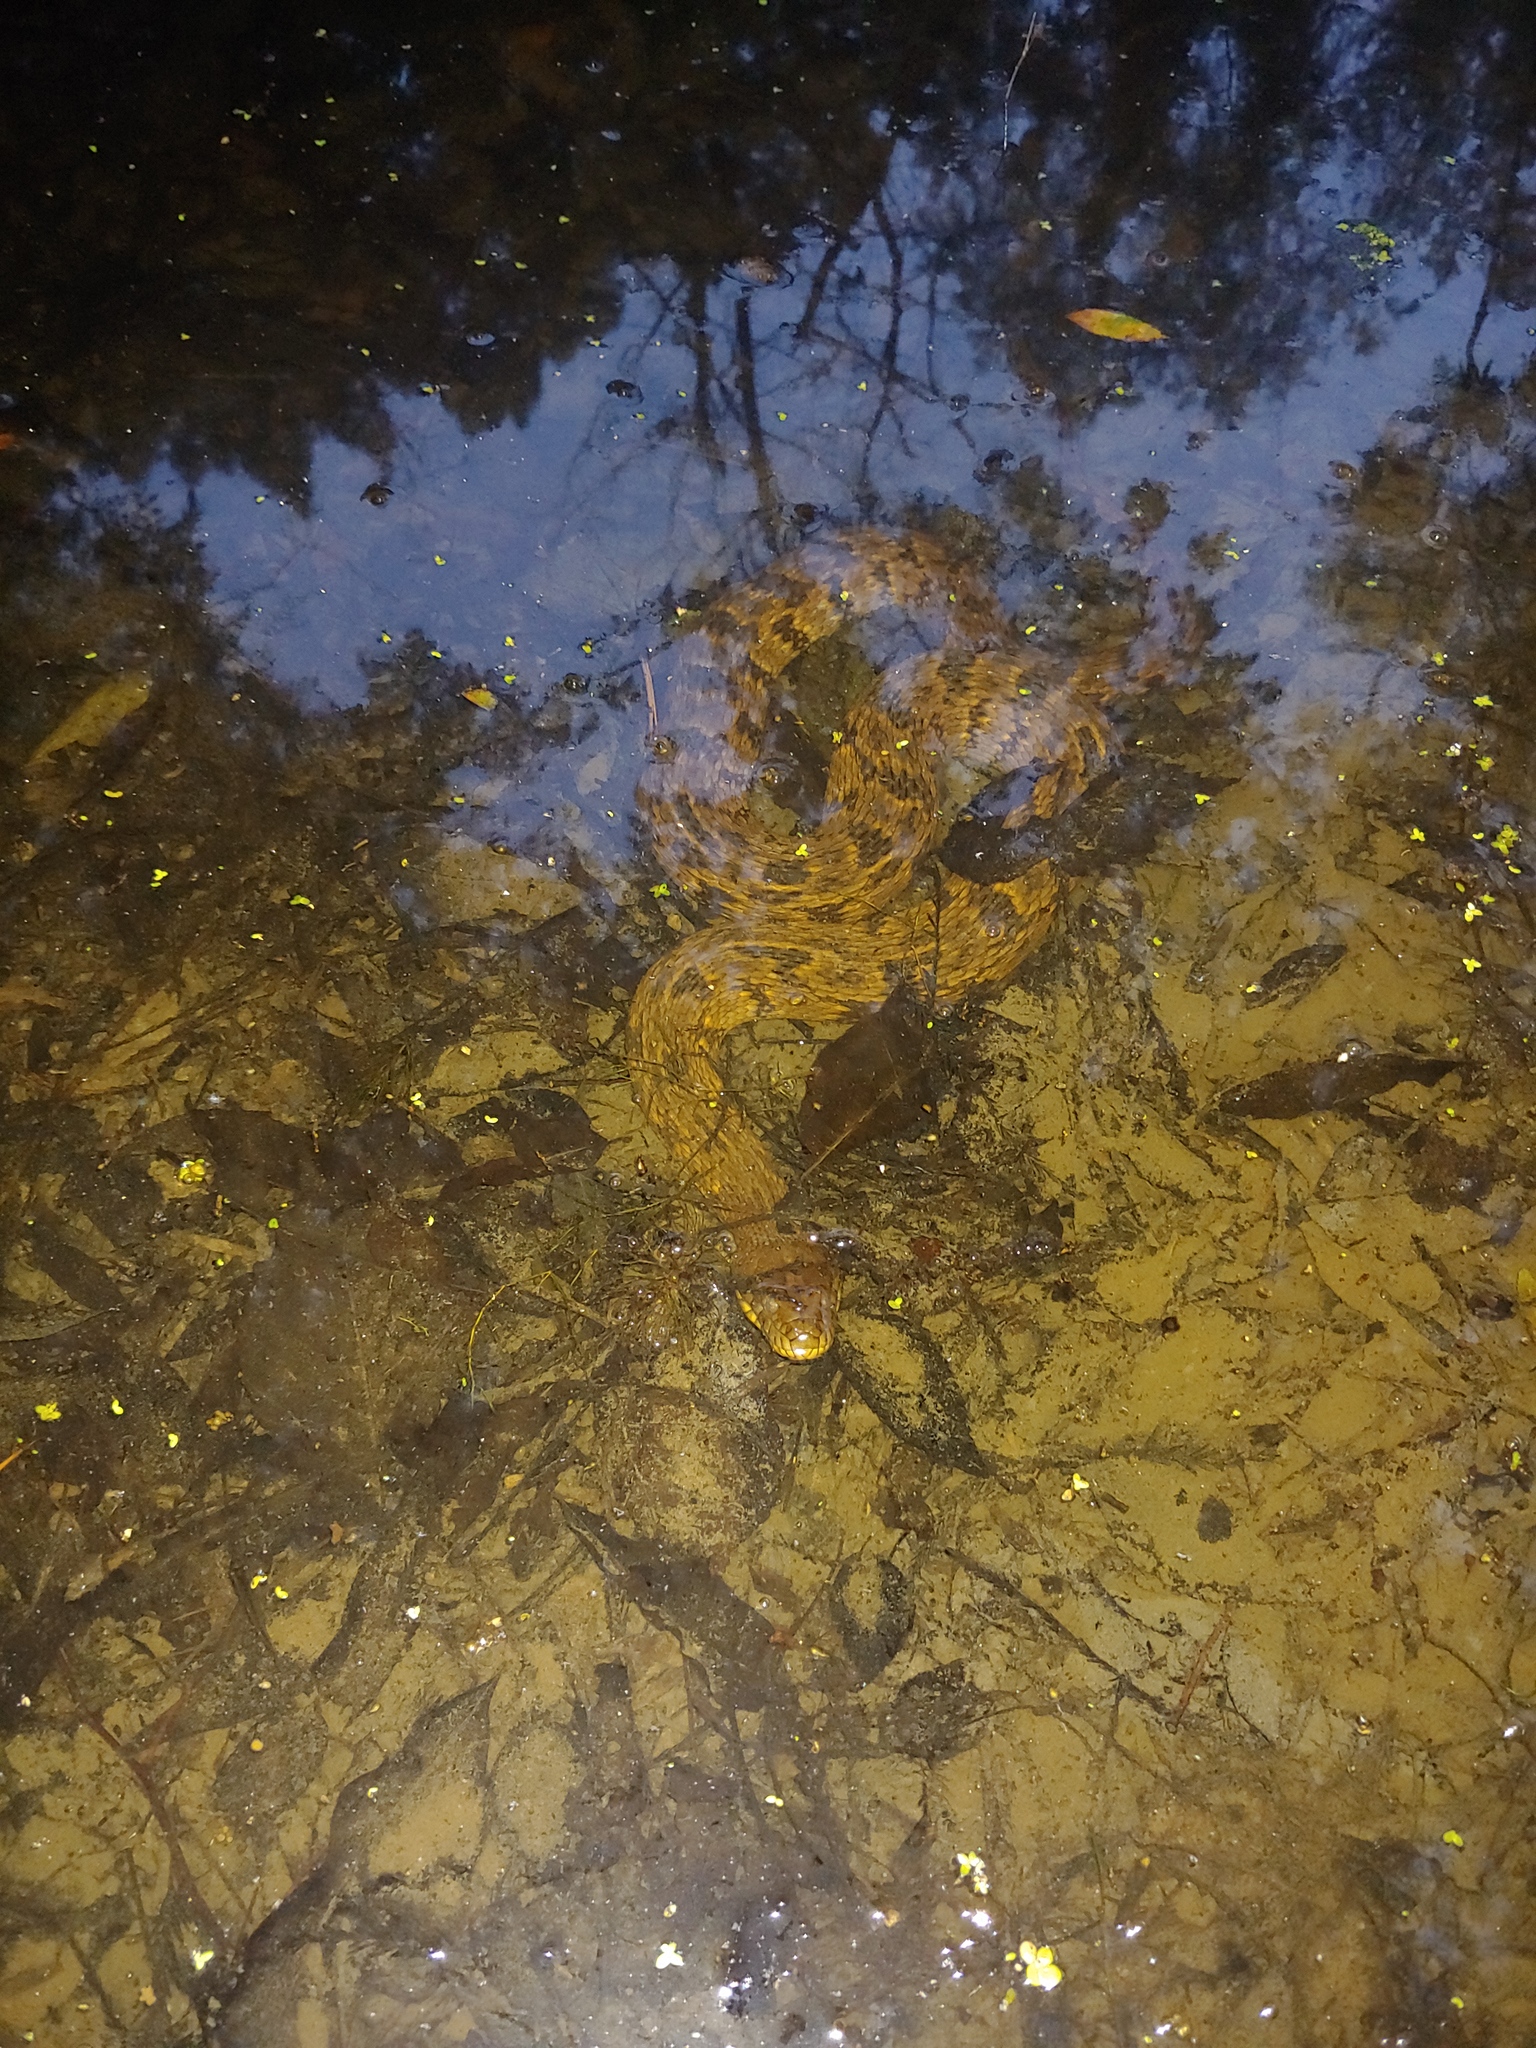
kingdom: Animalia
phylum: Chordata
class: Squamata
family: Colubridae
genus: Nerodia
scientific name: Nerodia rhombifer
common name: Diamondback water snake
